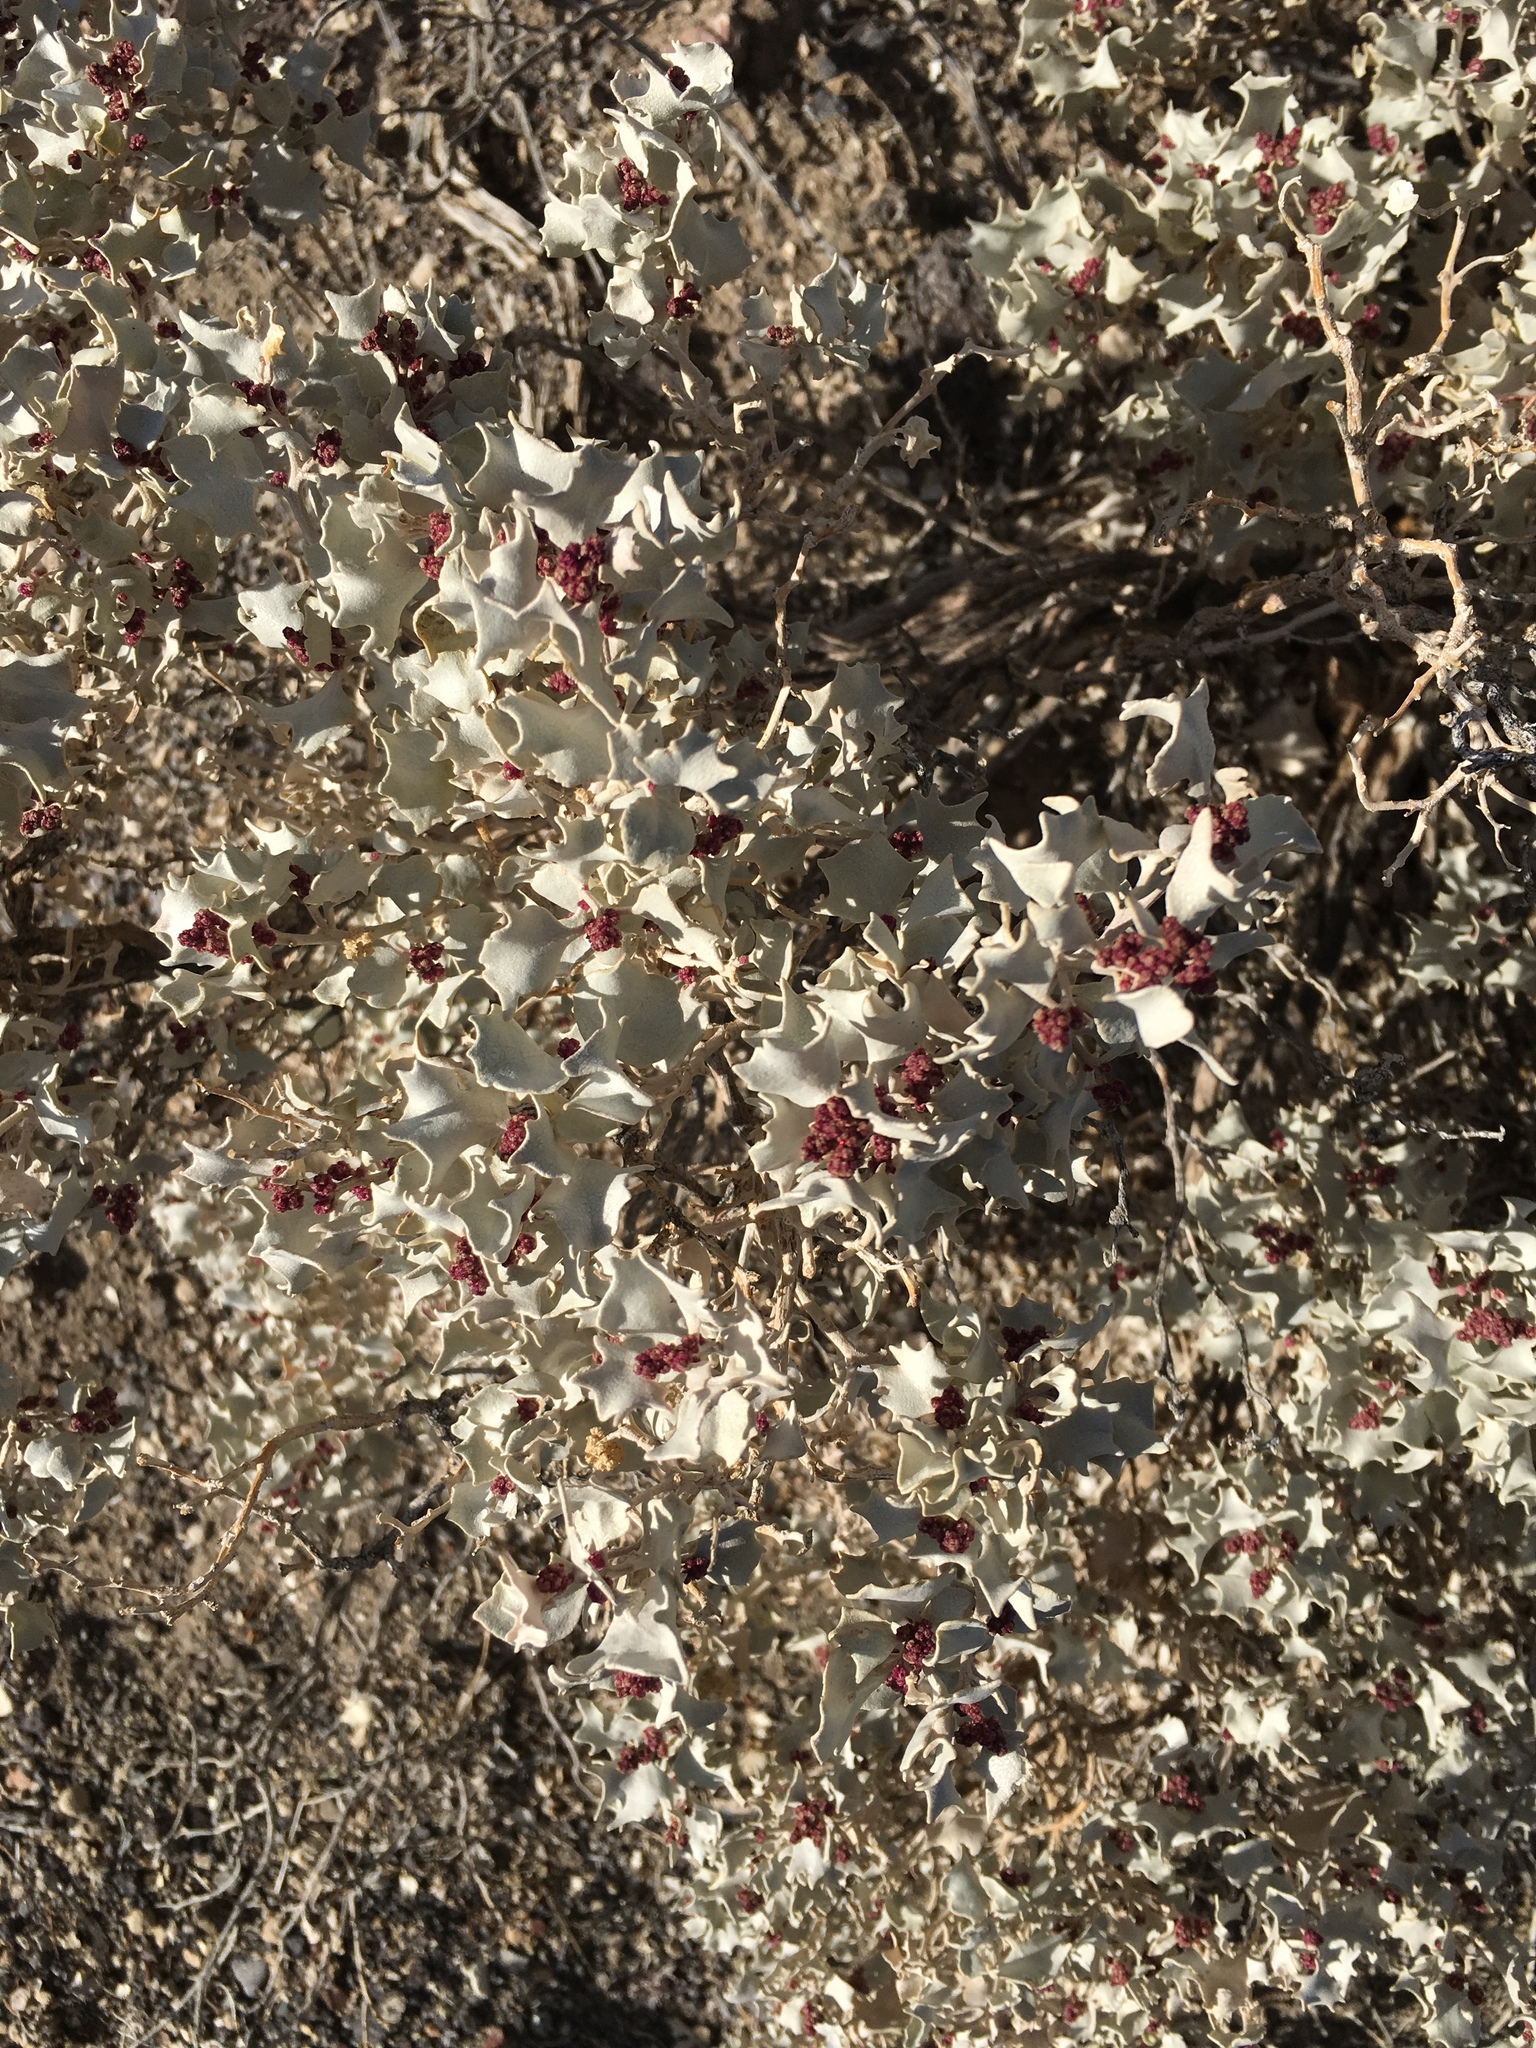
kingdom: Plantae
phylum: Tracheophyta
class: Magnoliopsida
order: Caryophyllales
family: Amaranthaceae
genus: Atriplex
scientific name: Atriplex hymenelytra
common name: Desert-holly
